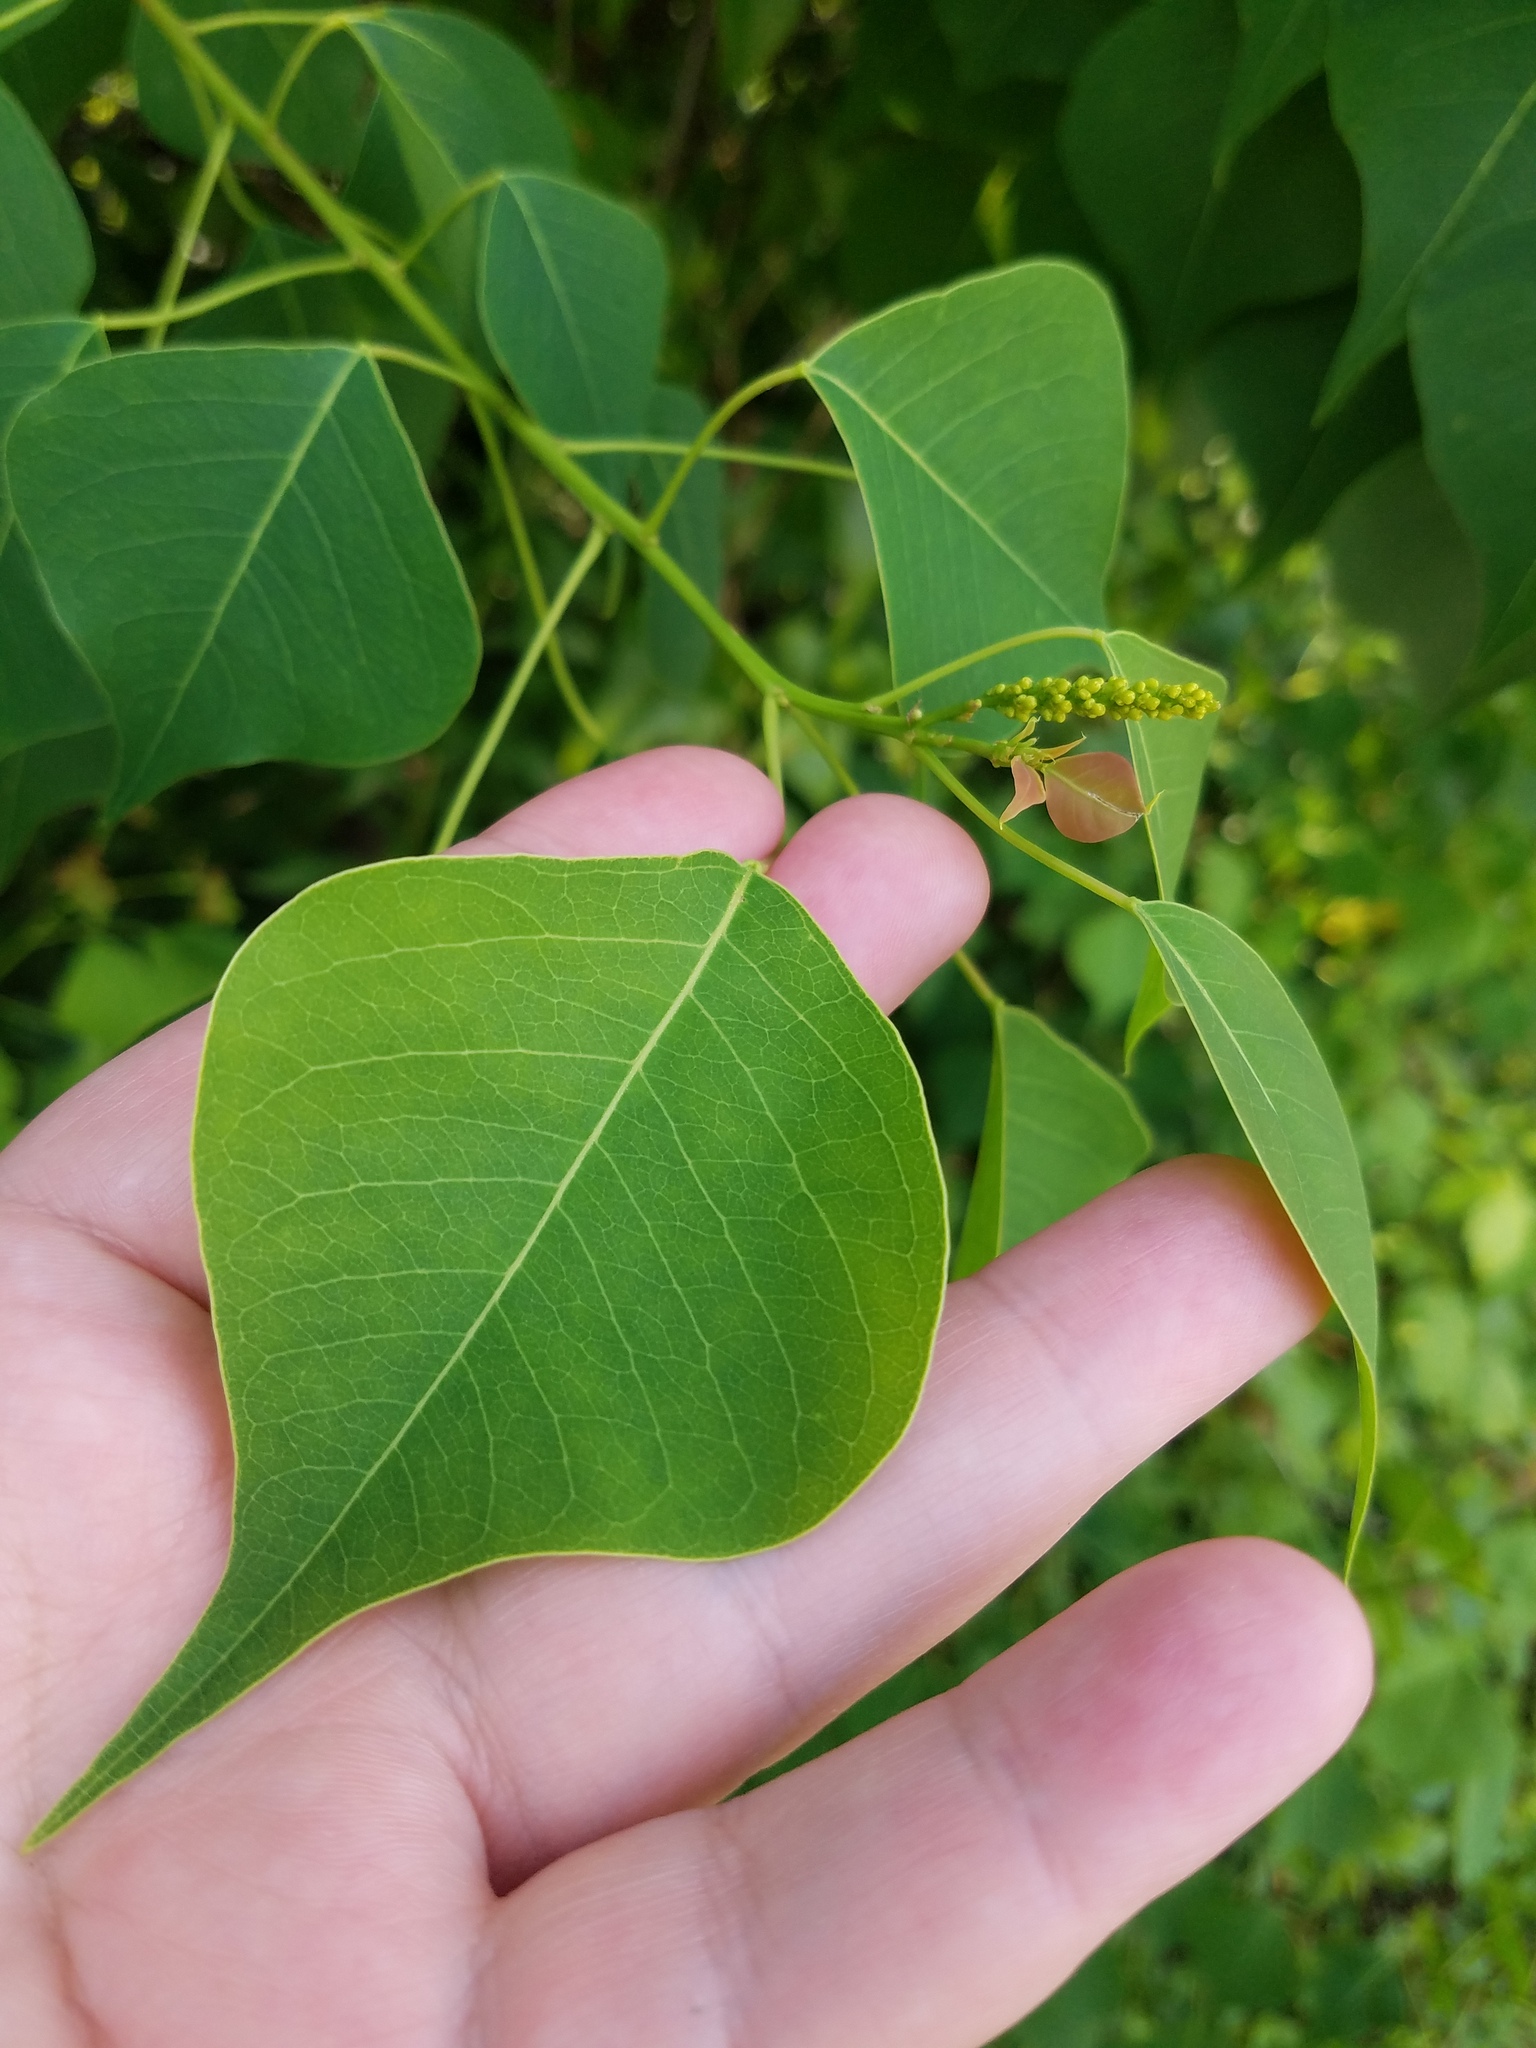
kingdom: Plantae
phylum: Tracheophyta
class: Magnoliopsida
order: Malpighiales
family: Euphorbiaceae
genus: Triadica
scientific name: Triadica sebifera
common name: Chinese tallow
